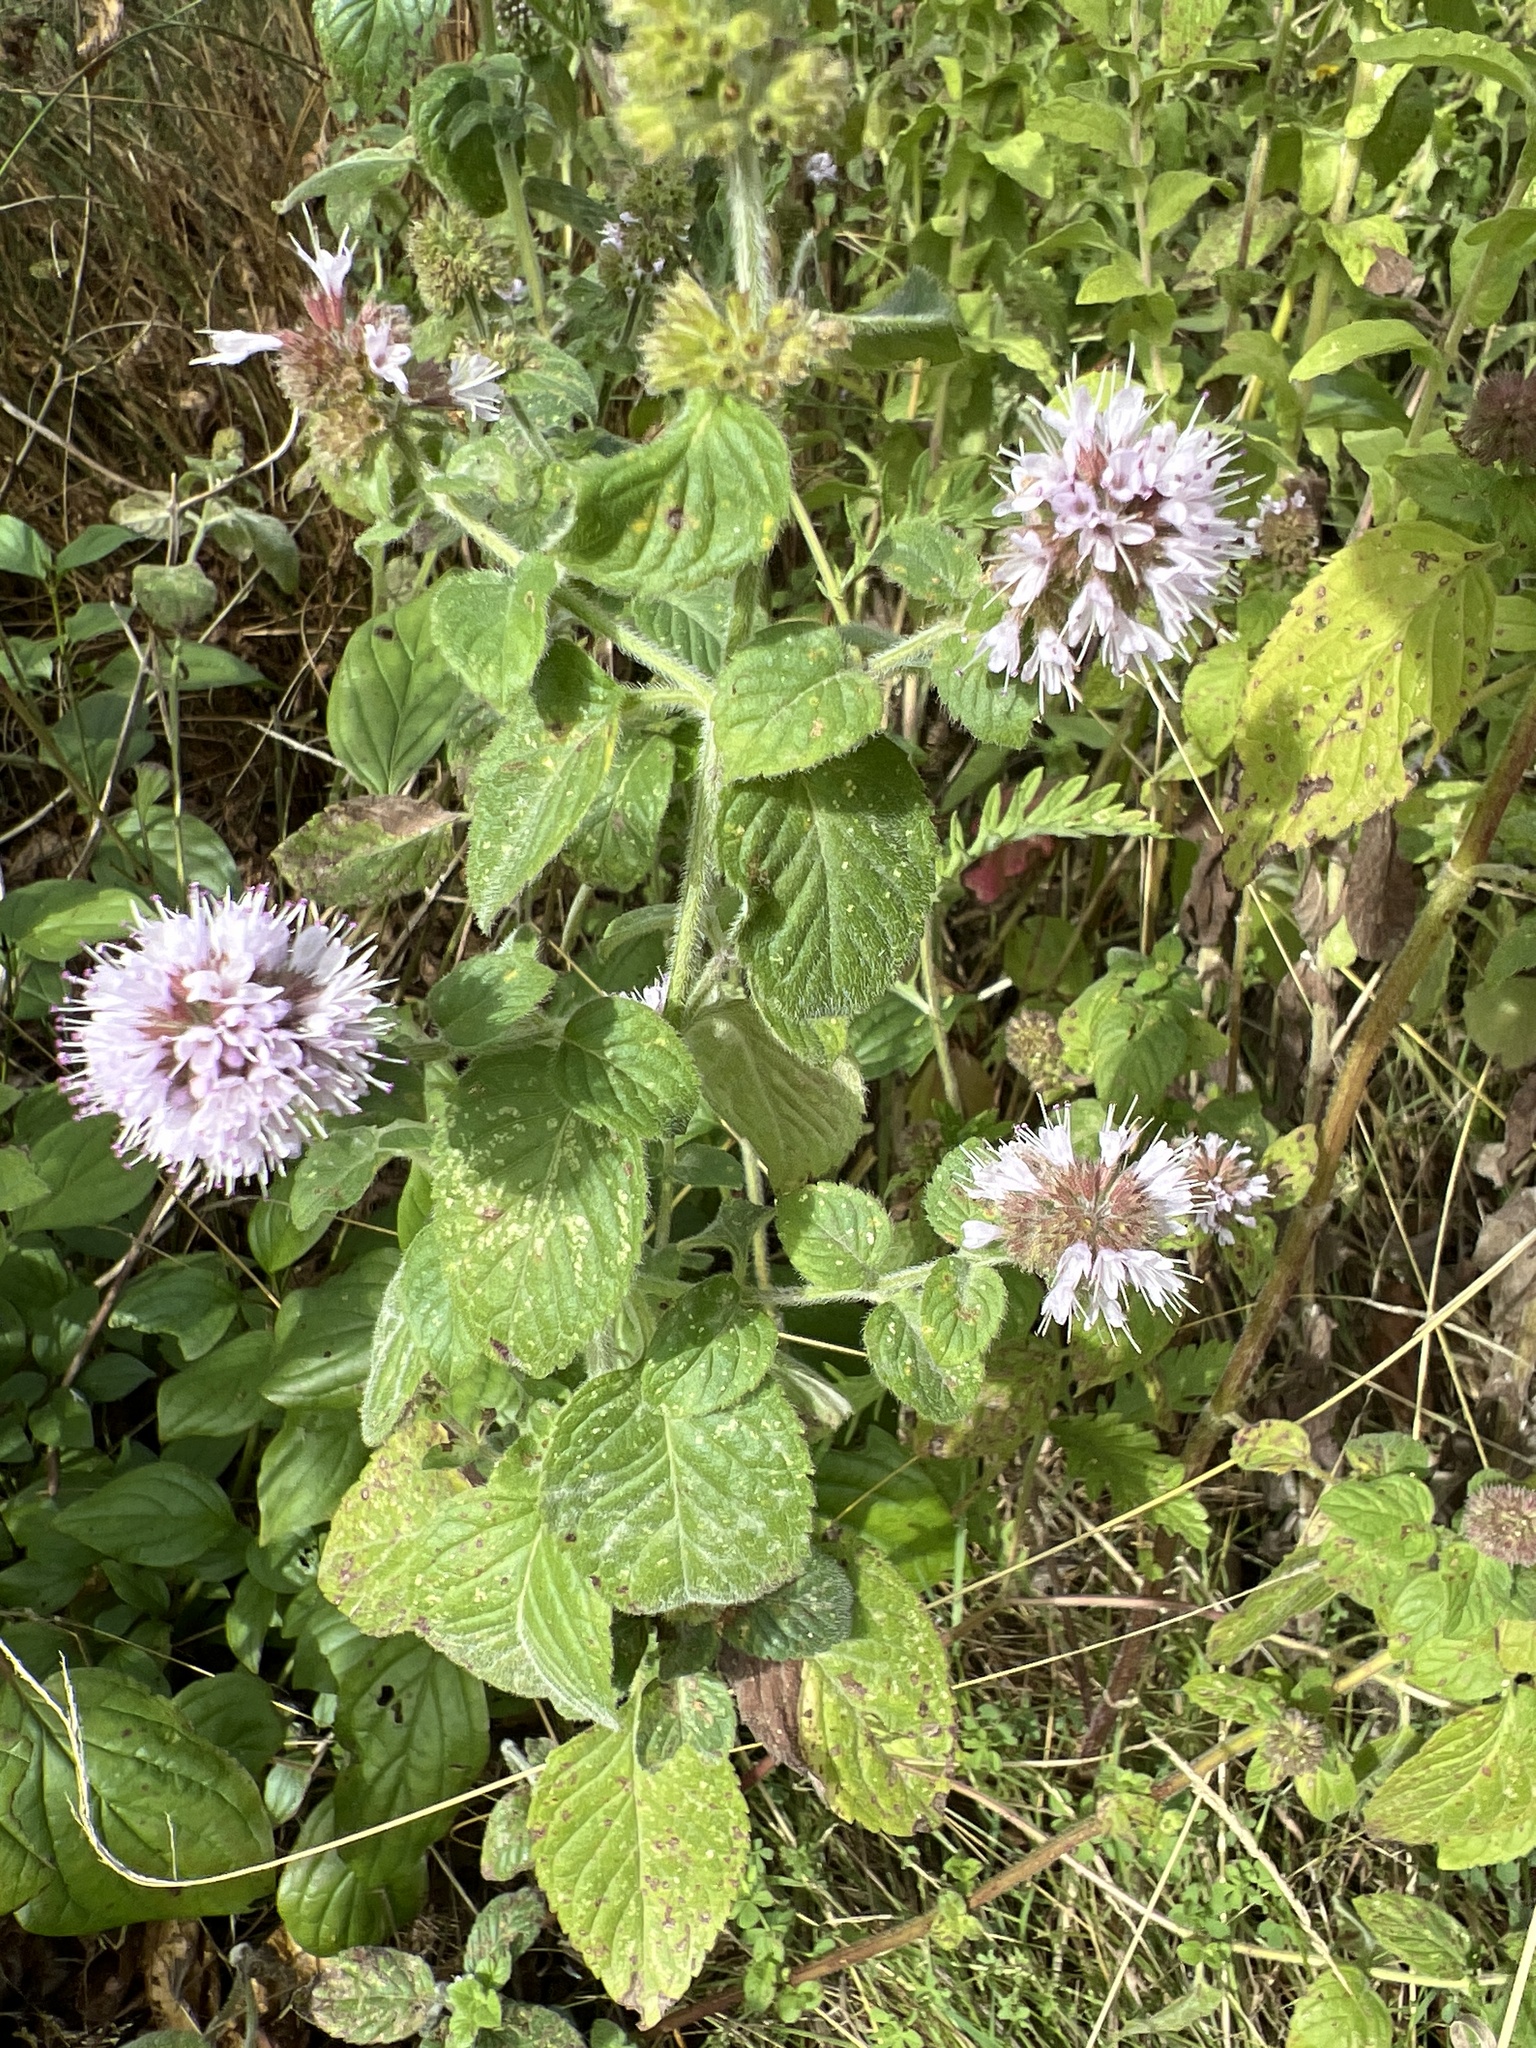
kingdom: Plantae
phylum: Tracheophyta
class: Magnoliopsida
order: Lamiales
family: Lamiaceae
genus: Mentha
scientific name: Mentha aquatica
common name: Water mint
